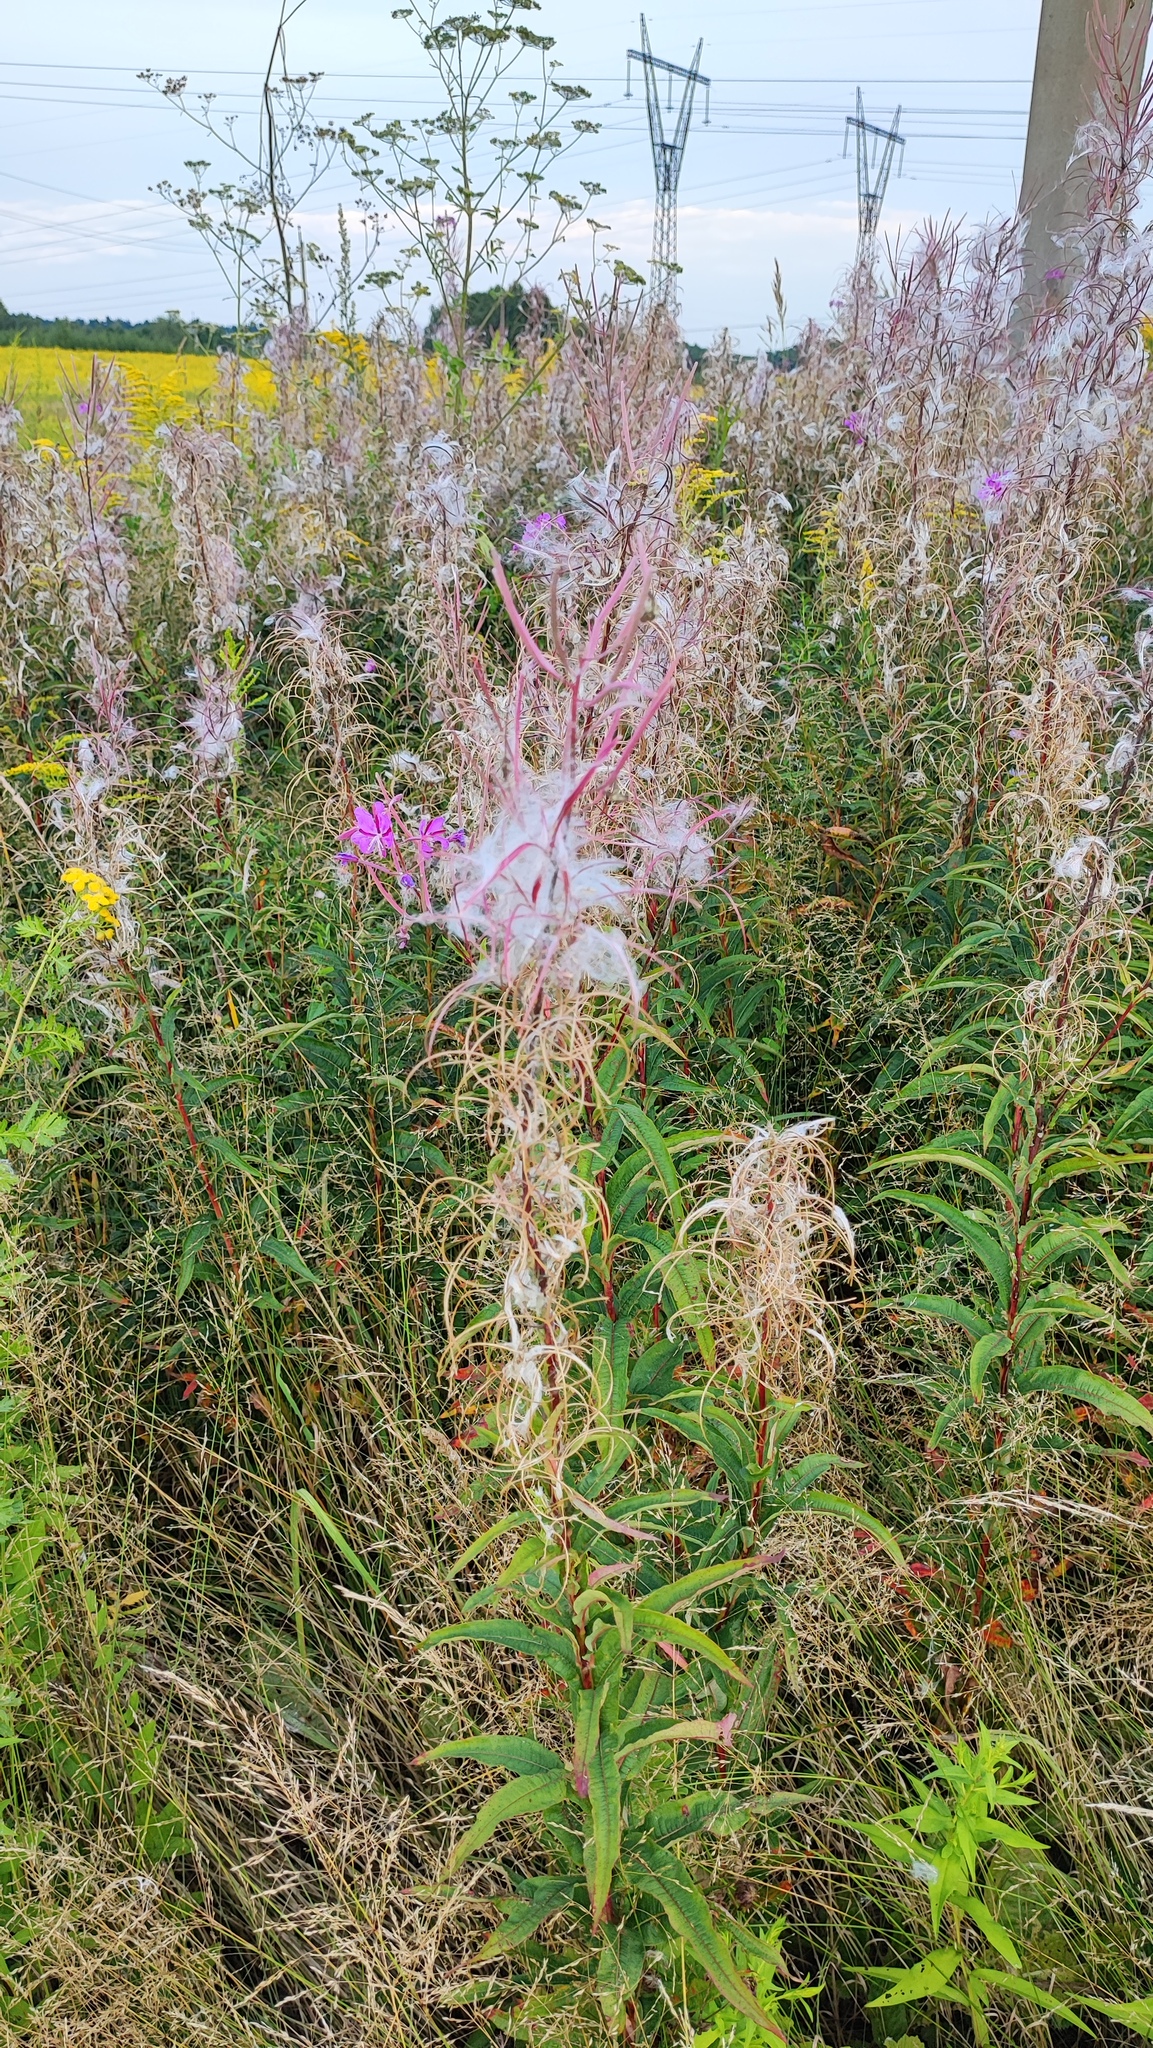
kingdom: Plantae
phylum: Tracheophyta
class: Magnoliopsida
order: Myrtales
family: Onagraceae
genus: Chamaenerion
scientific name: Chamaenerion angustifolium
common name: Fireweed
